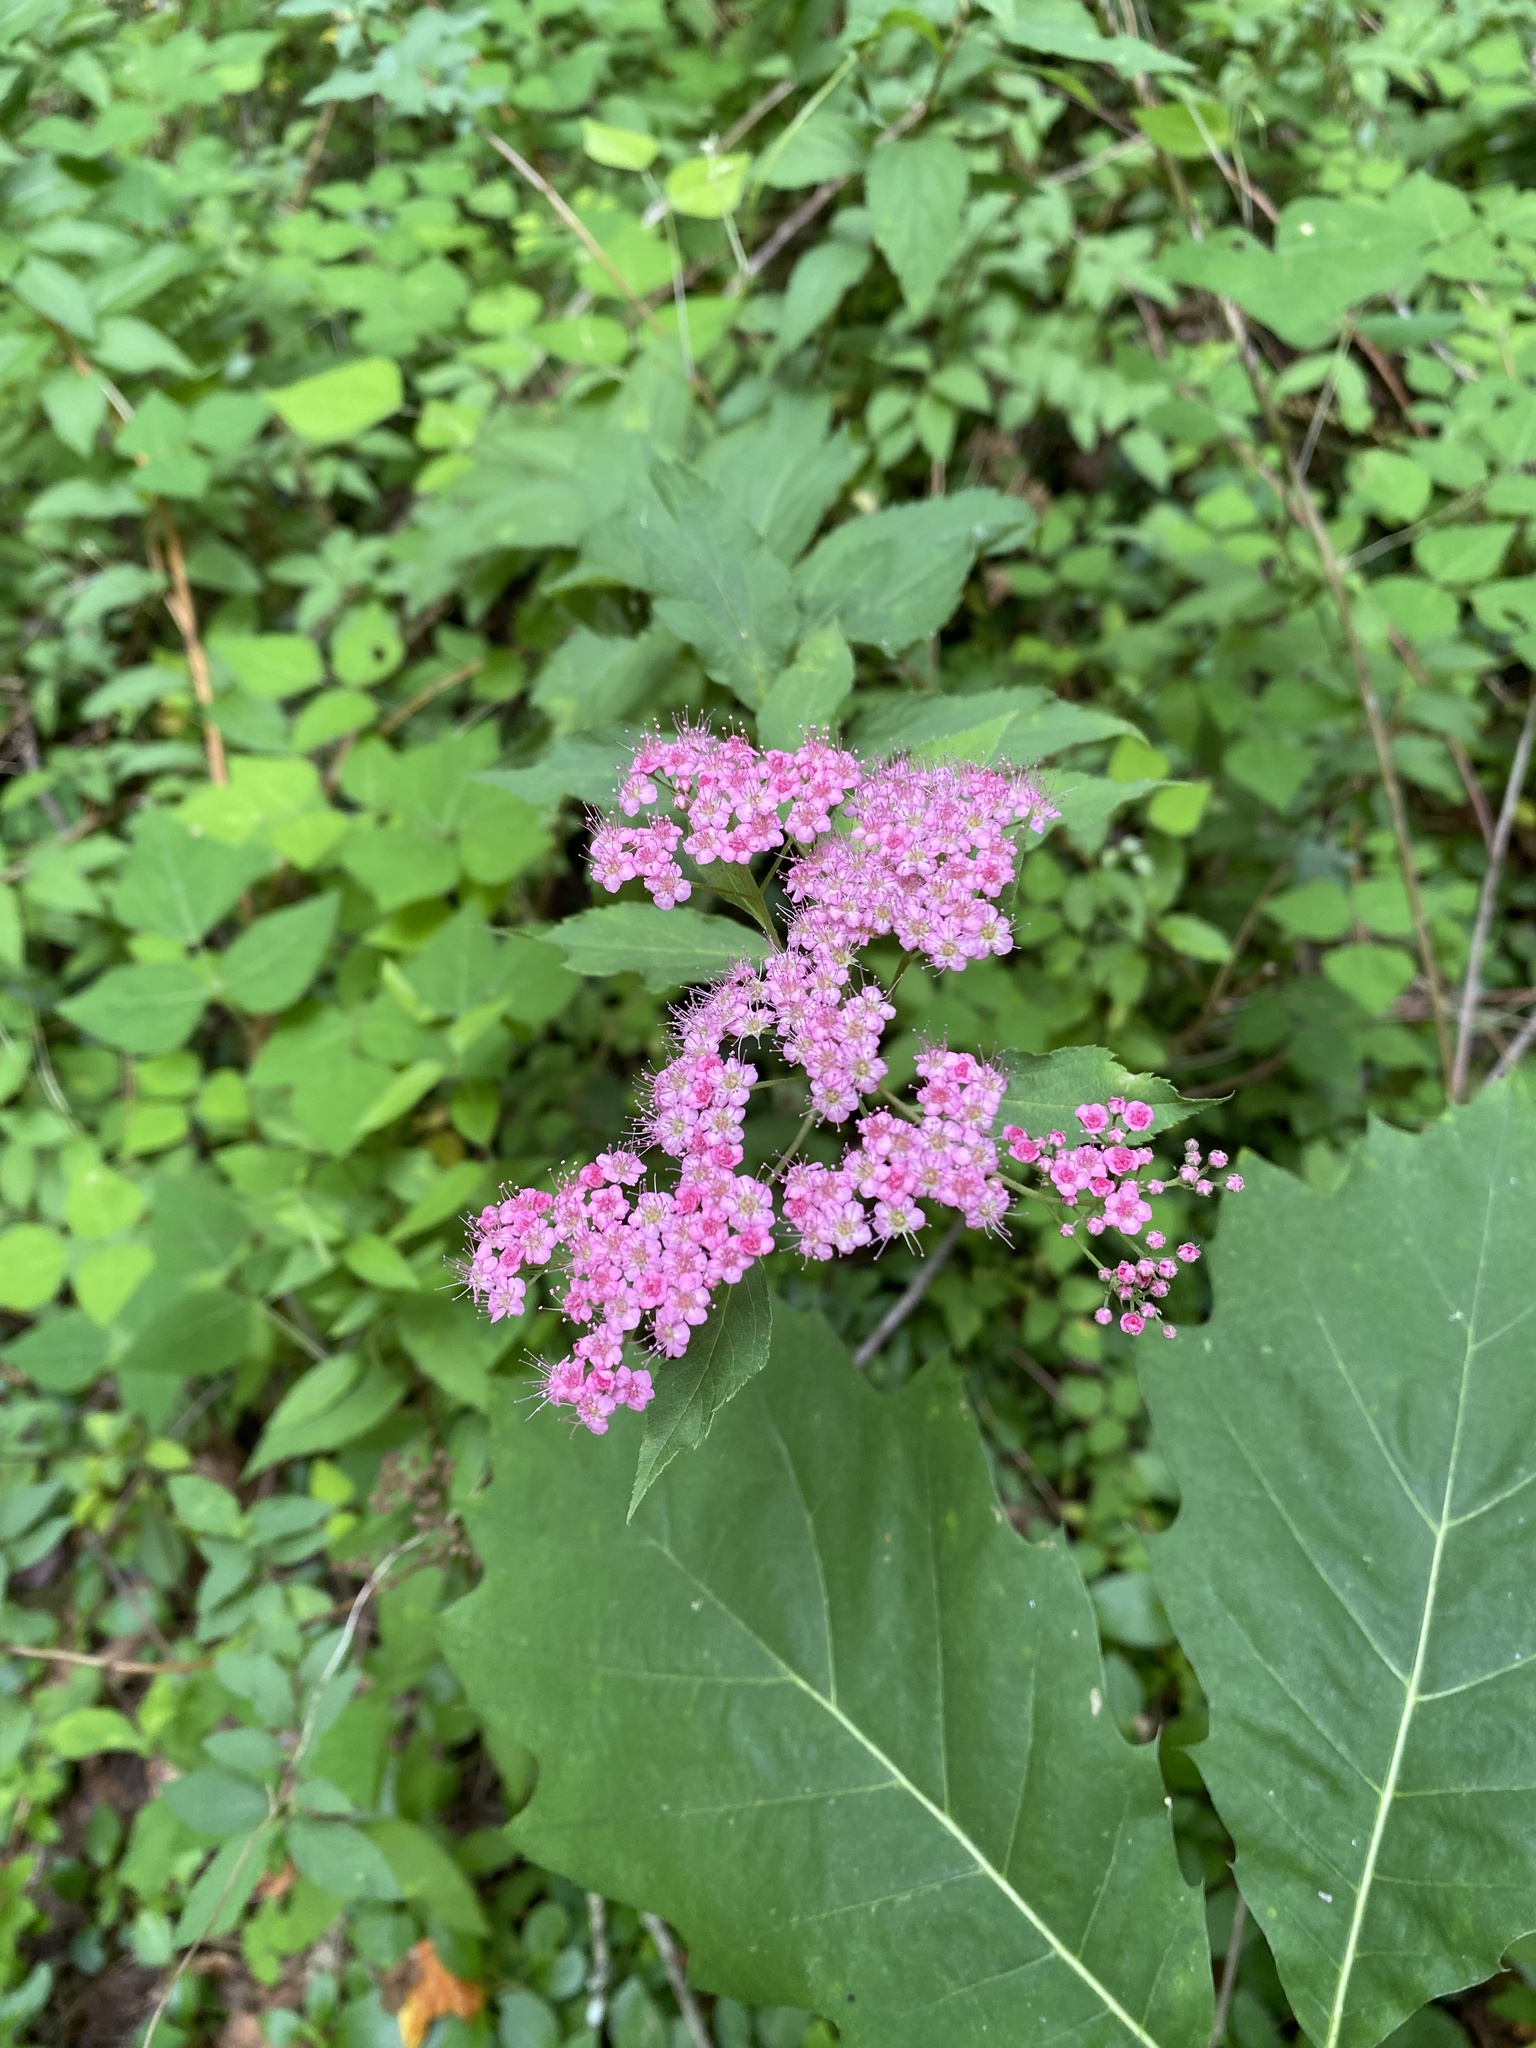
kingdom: Plantae
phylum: Tracheophyta
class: Magnoliopsida
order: Rosales
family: Rosaceae
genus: Spiraea
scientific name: Spiraea japonica
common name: Japanese spiraea
